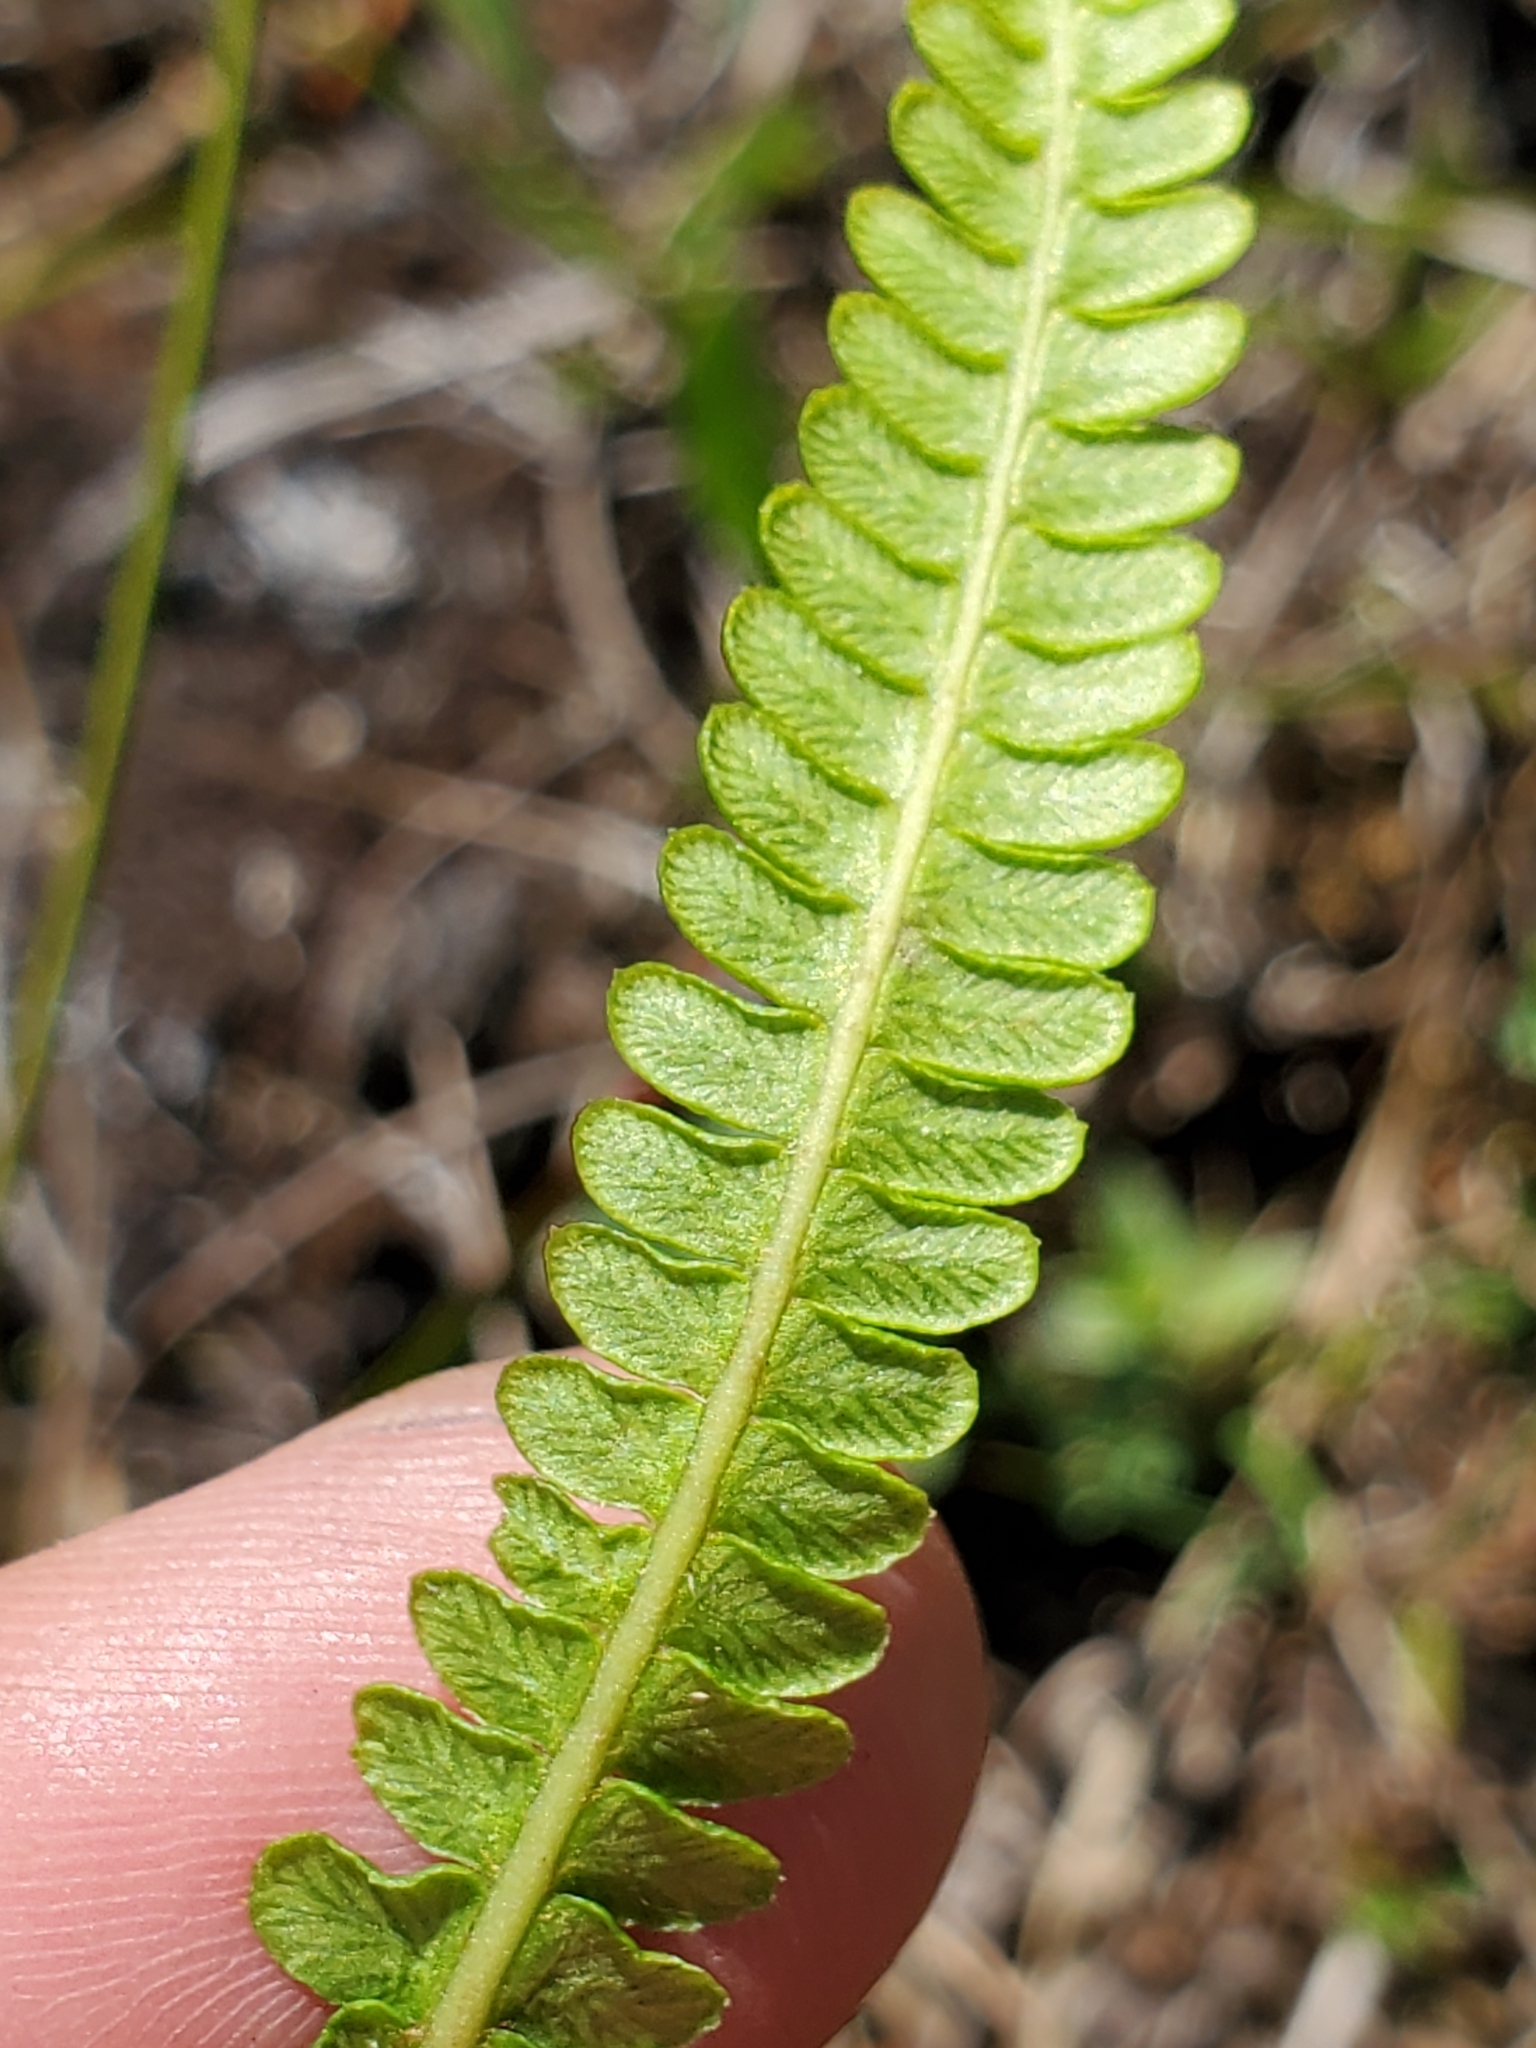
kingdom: Plantae
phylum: Tracheophyta
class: Polypodiopsida
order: Polypodiales
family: Blechnaceae
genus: Struthiopteris
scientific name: Struthiopteris spicant
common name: Deer fern
